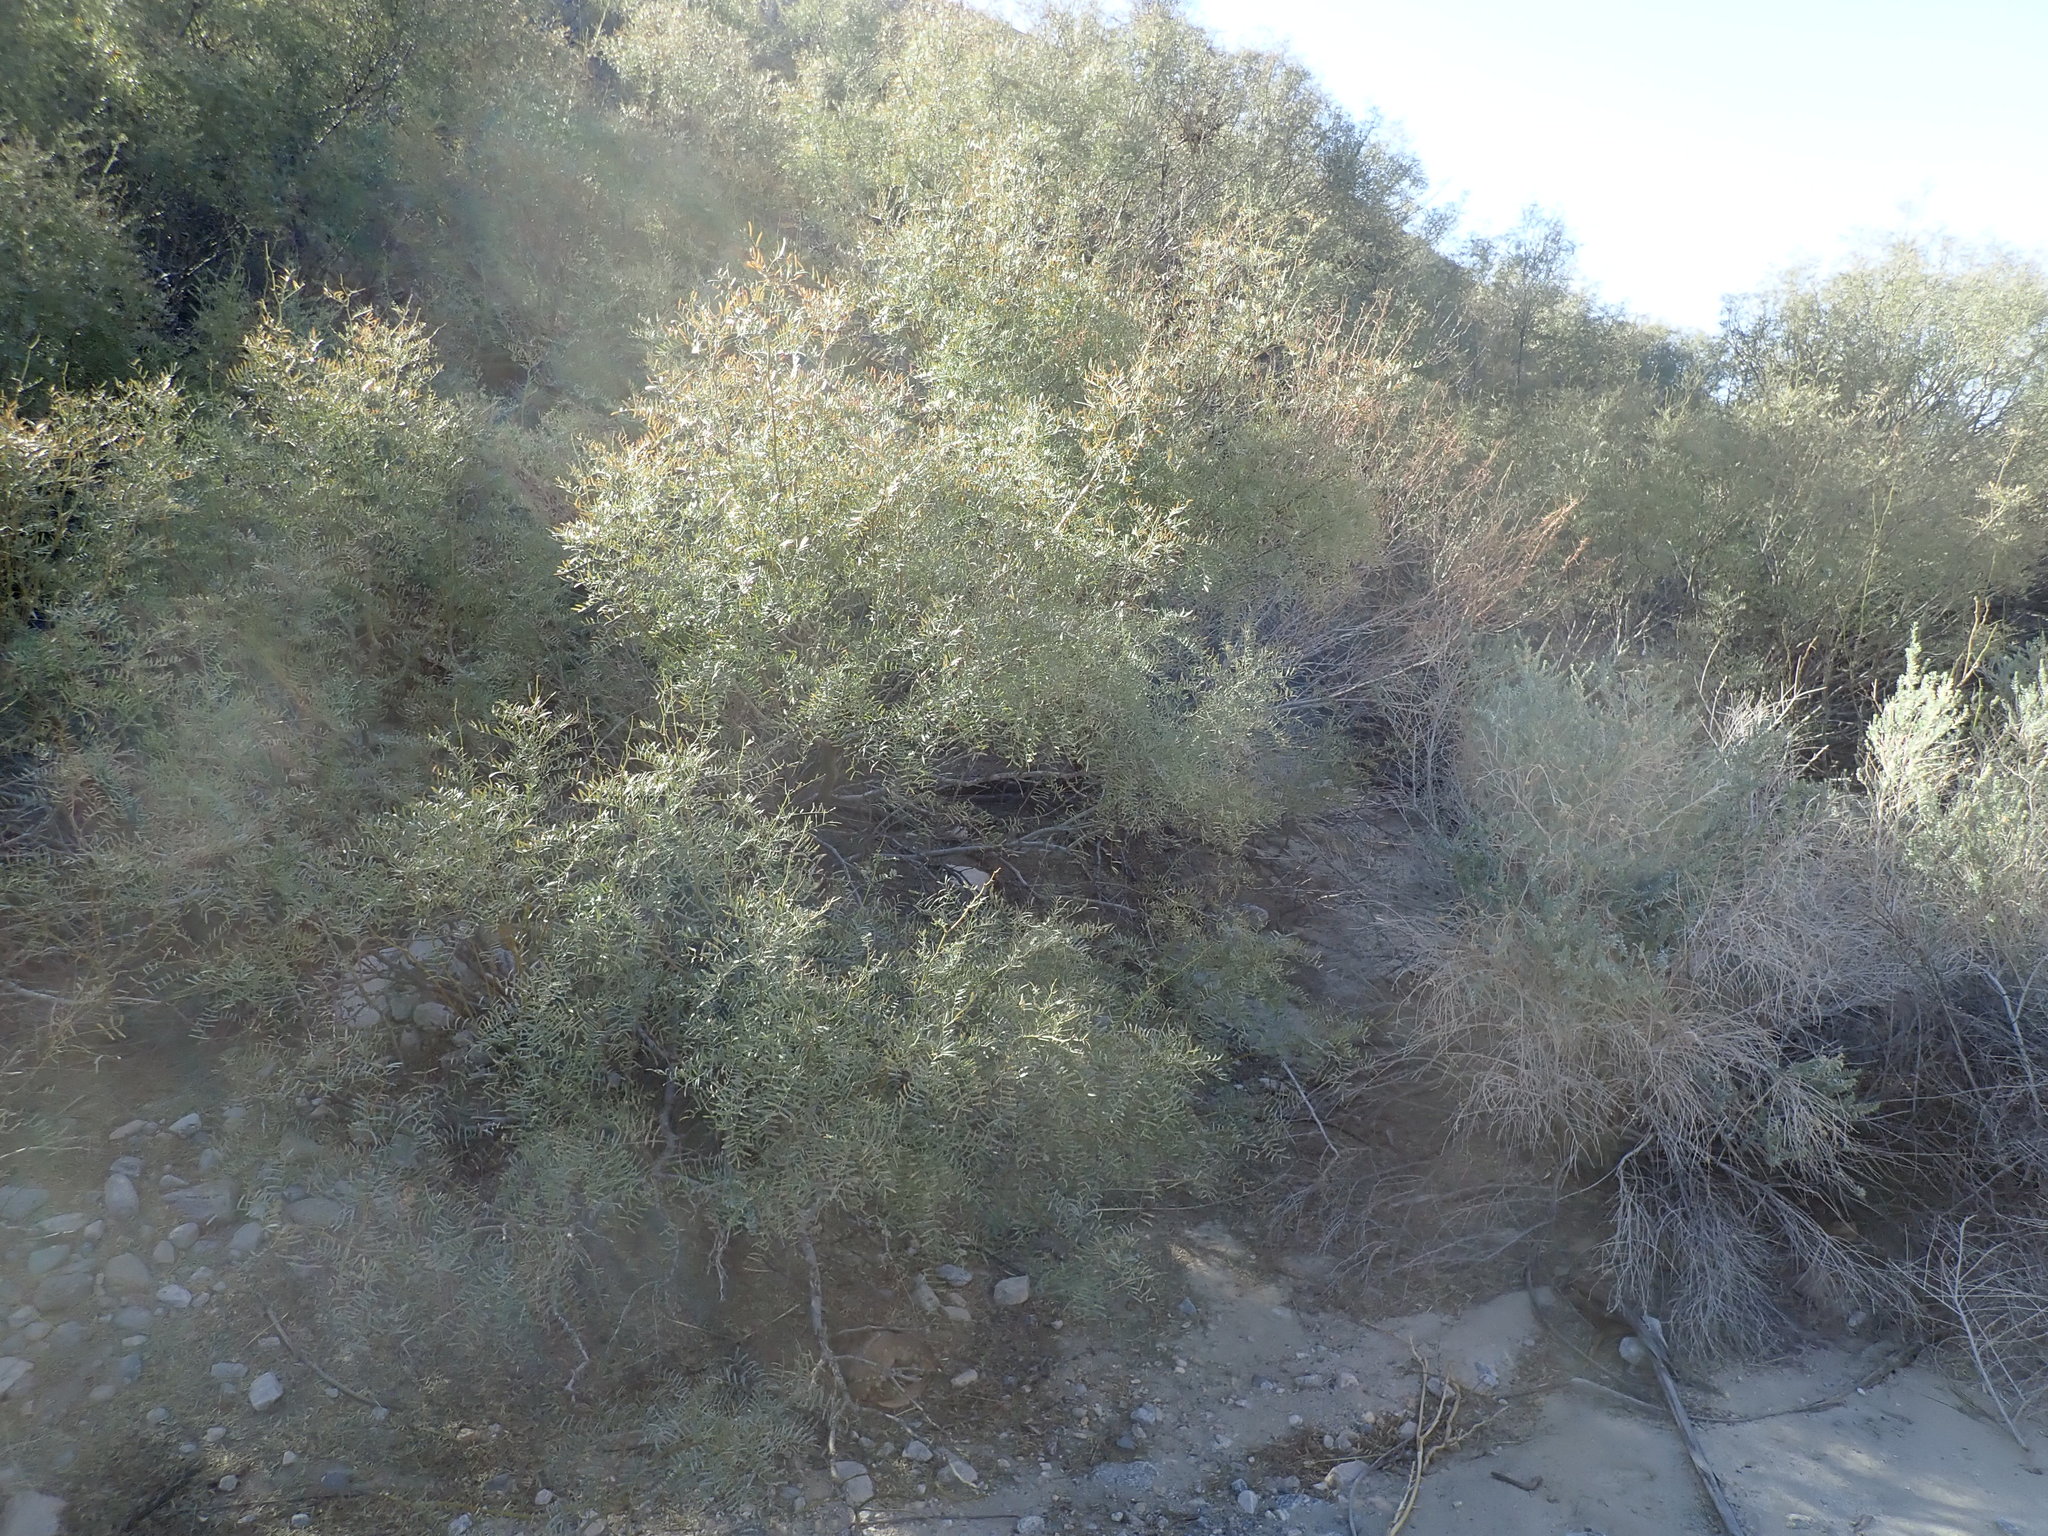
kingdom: Plantae
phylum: Tracheophyta
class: Magnoliopsida
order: Asterales
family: Asteraceae
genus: Pluchea
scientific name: Pluchea sericea
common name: Arrow-weed
